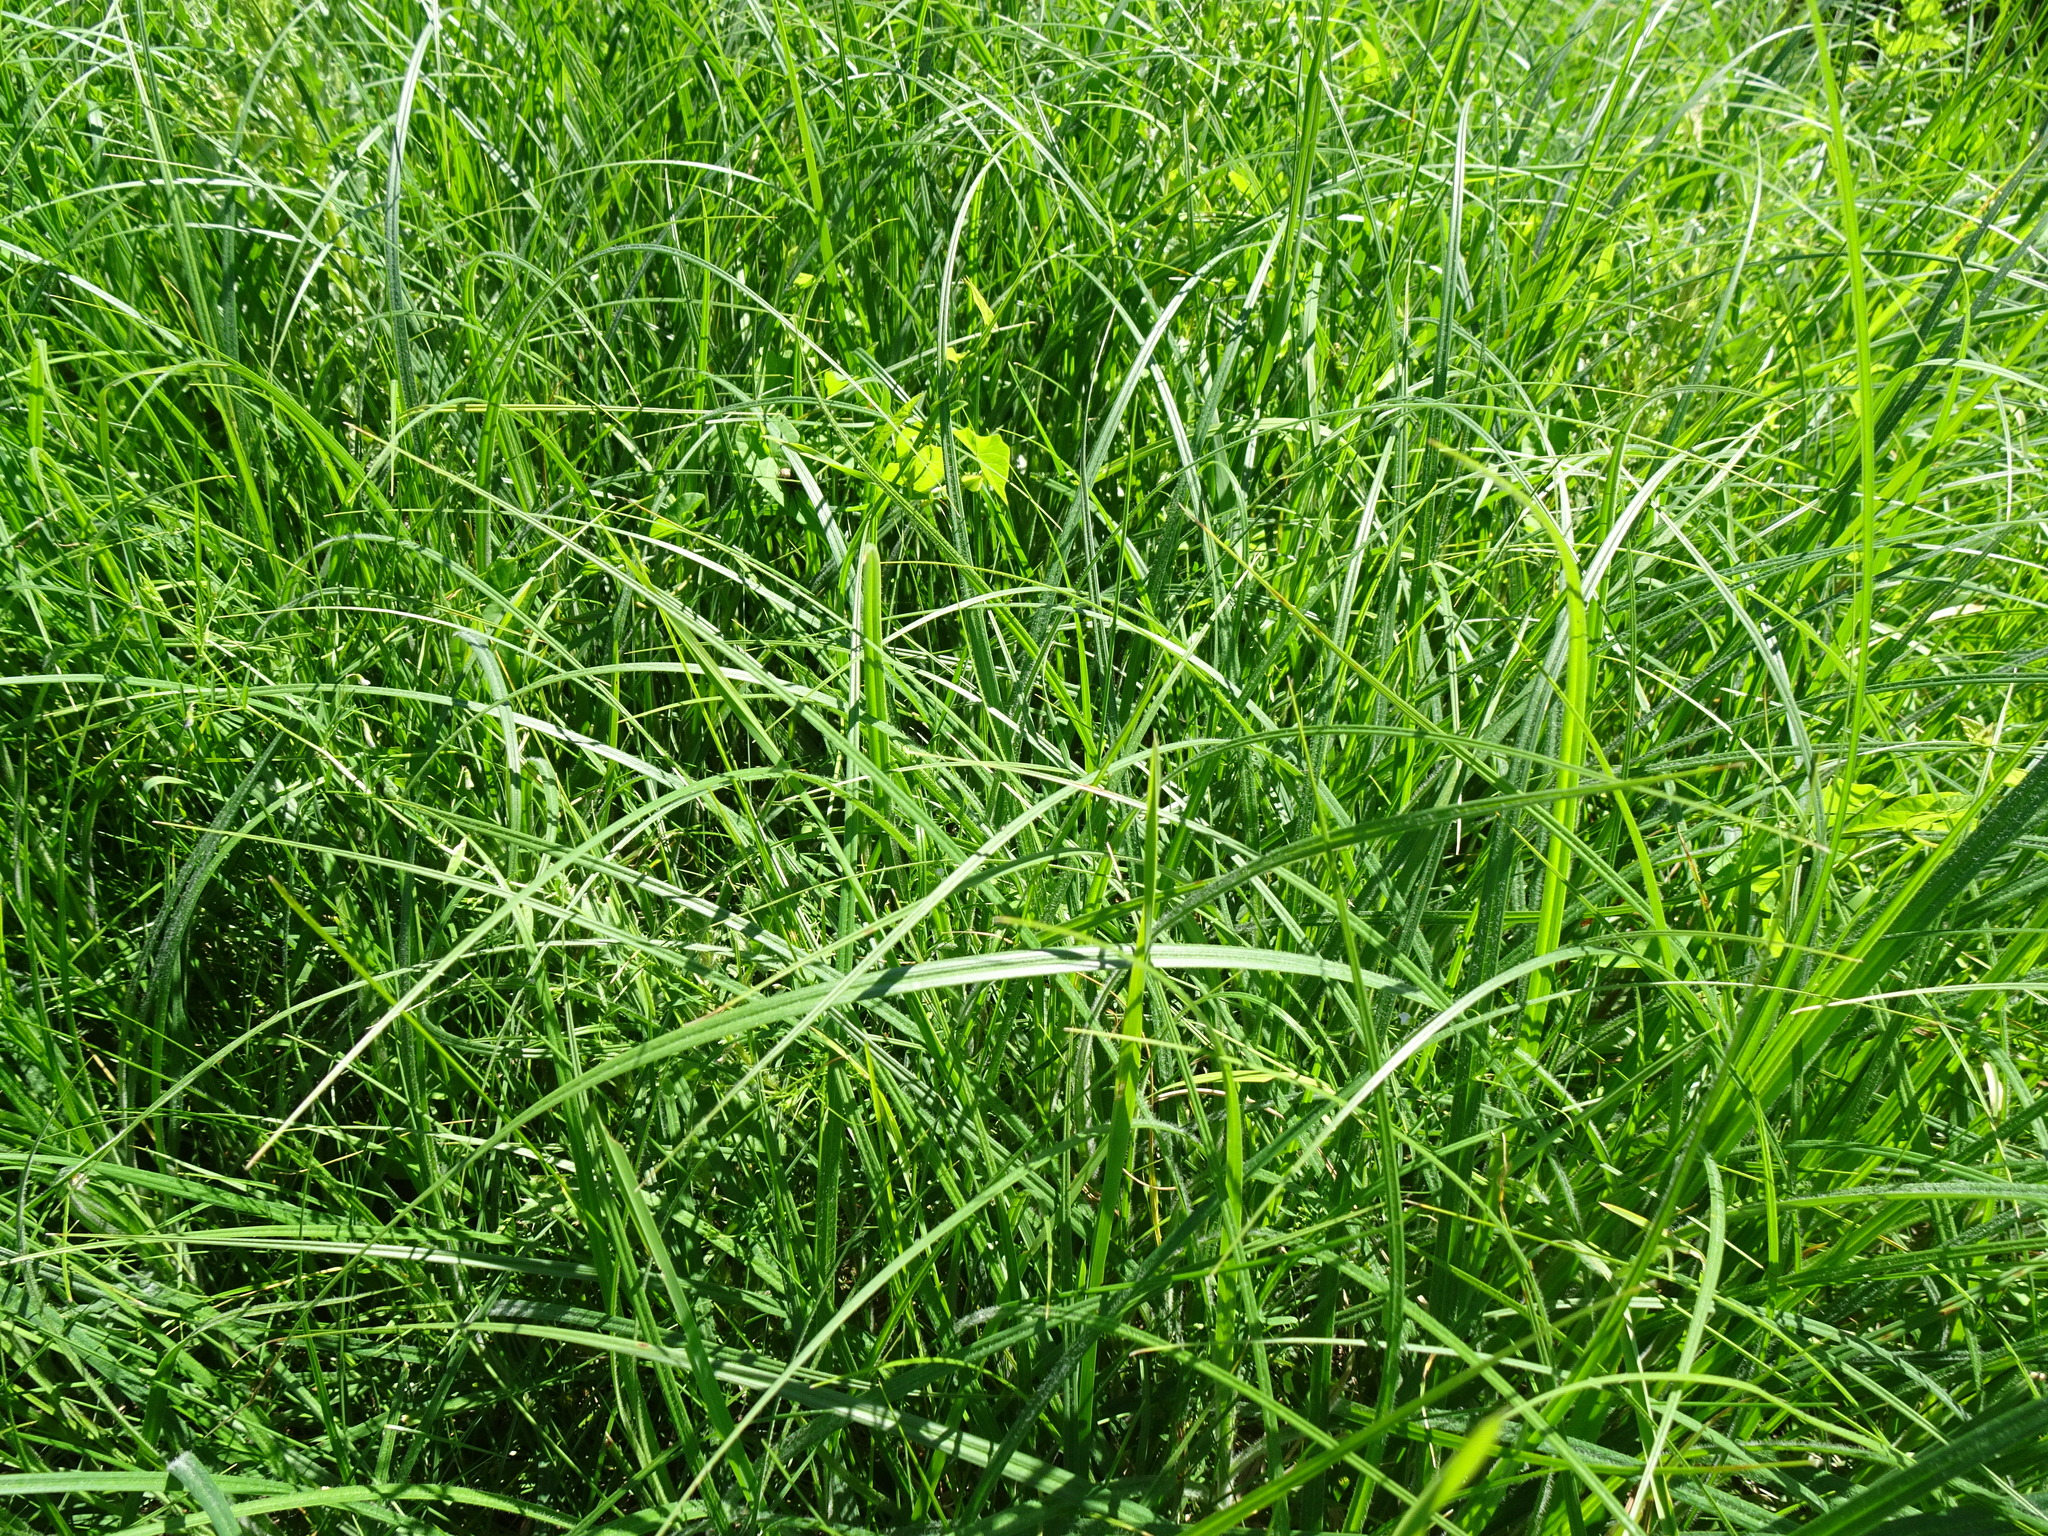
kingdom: Plantae
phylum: Tracheophyta
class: Liliopsida
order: Poales
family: Cyperaceae
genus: Carex
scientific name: Carex hirta
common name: Hairy sedge
